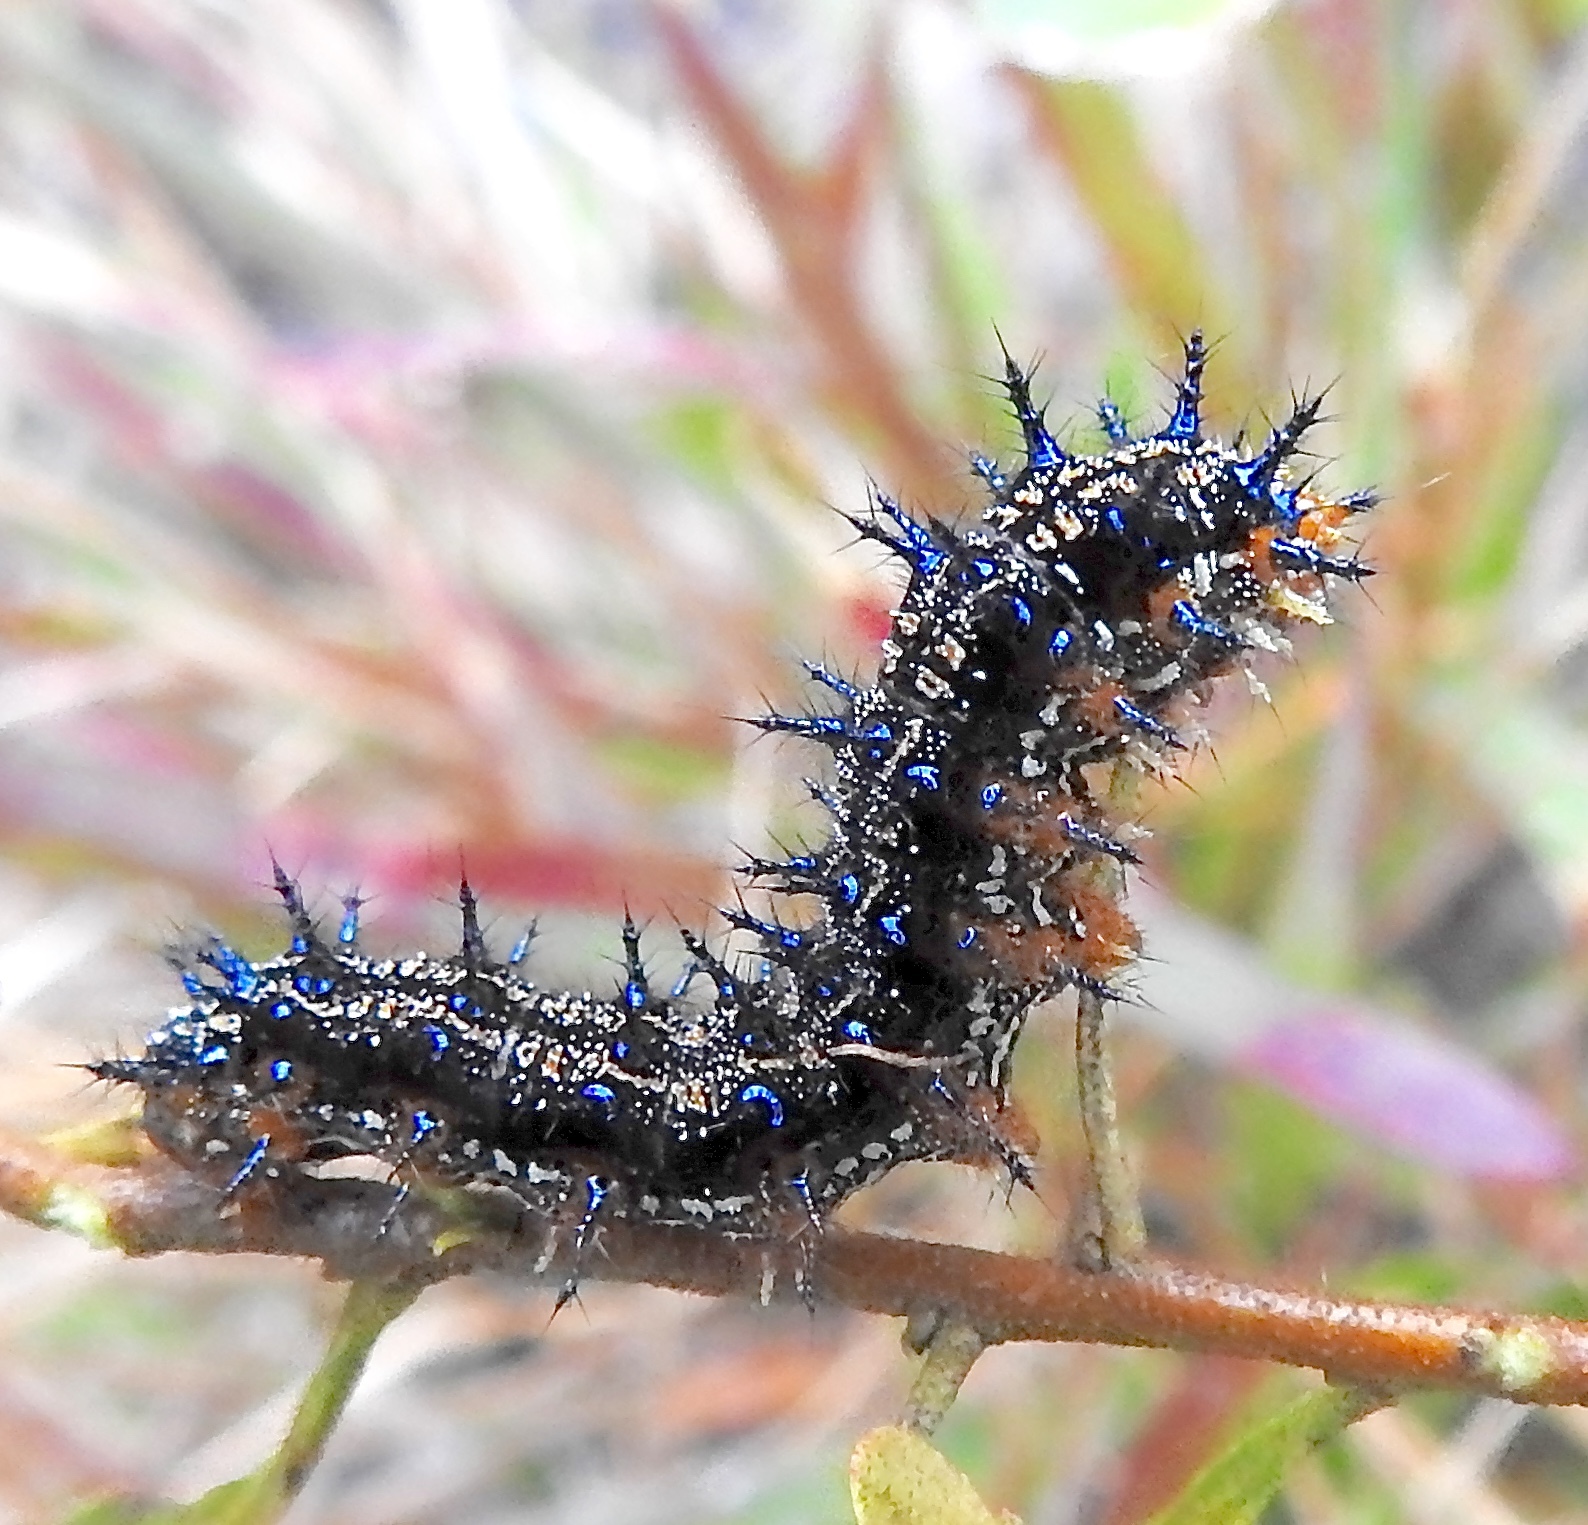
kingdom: Animalia
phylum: Arthropoda
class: Insecta
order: Lepidoptera
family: Nymphalidae
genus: Junonia
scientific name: Junonia coenia
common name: Common buckeye
